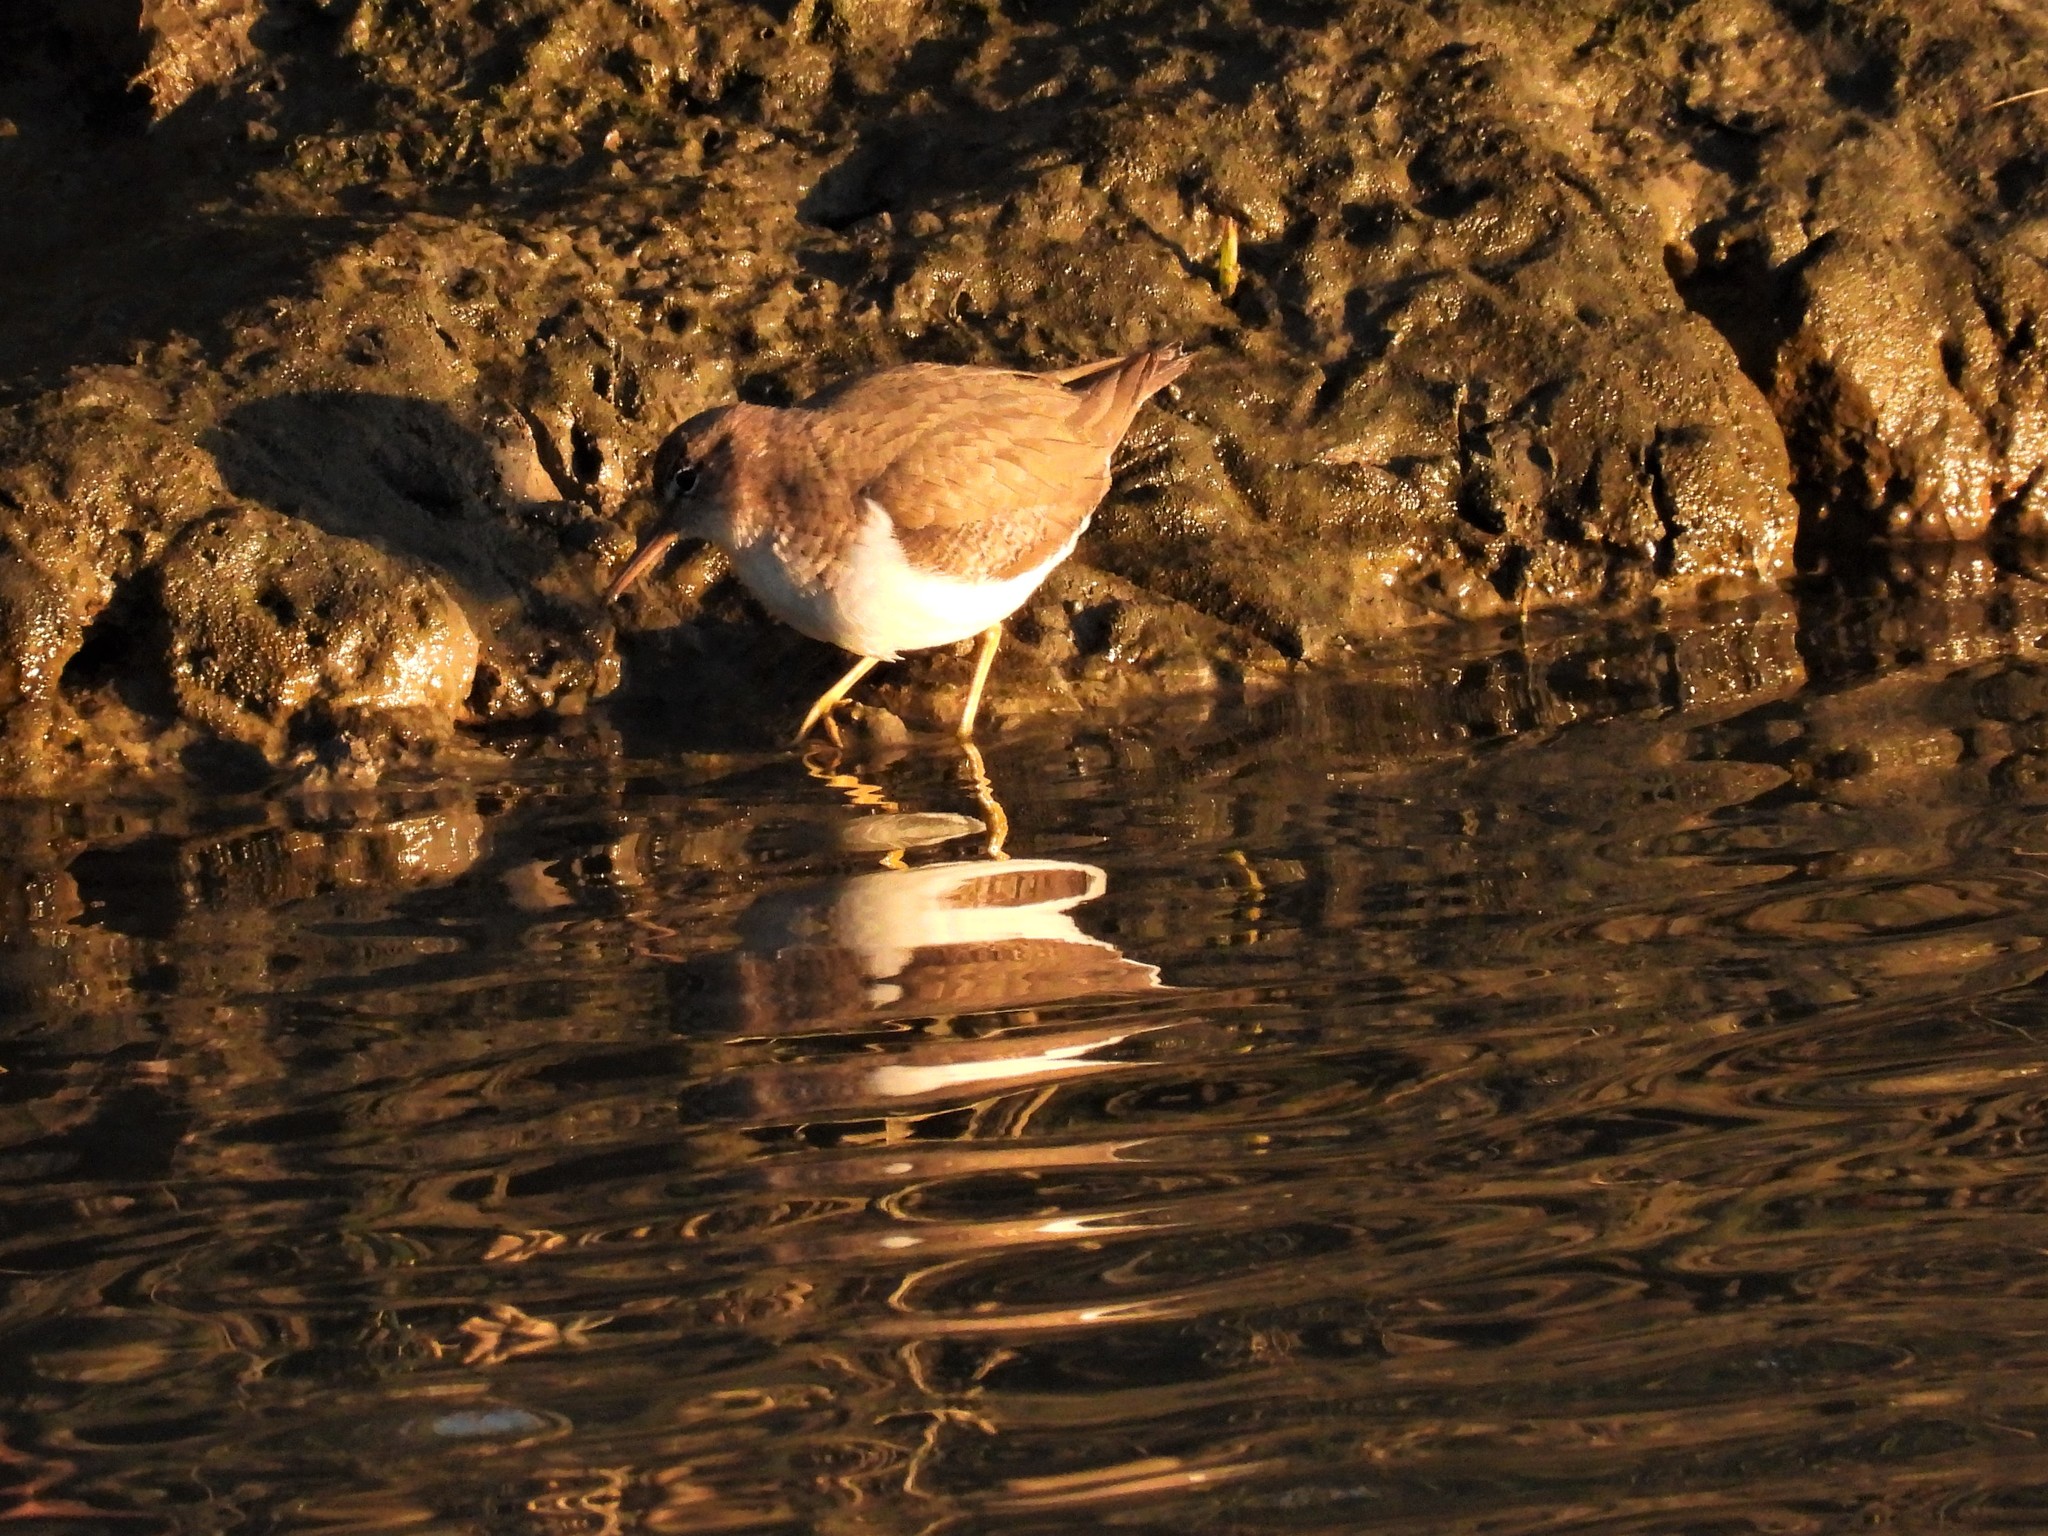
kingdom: Animalia
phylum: Chordata
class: Aves
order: Charadriiformes
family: Scolopacidae
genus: Actitis
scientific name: Actitis macularius
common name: Spotted sandpiper
